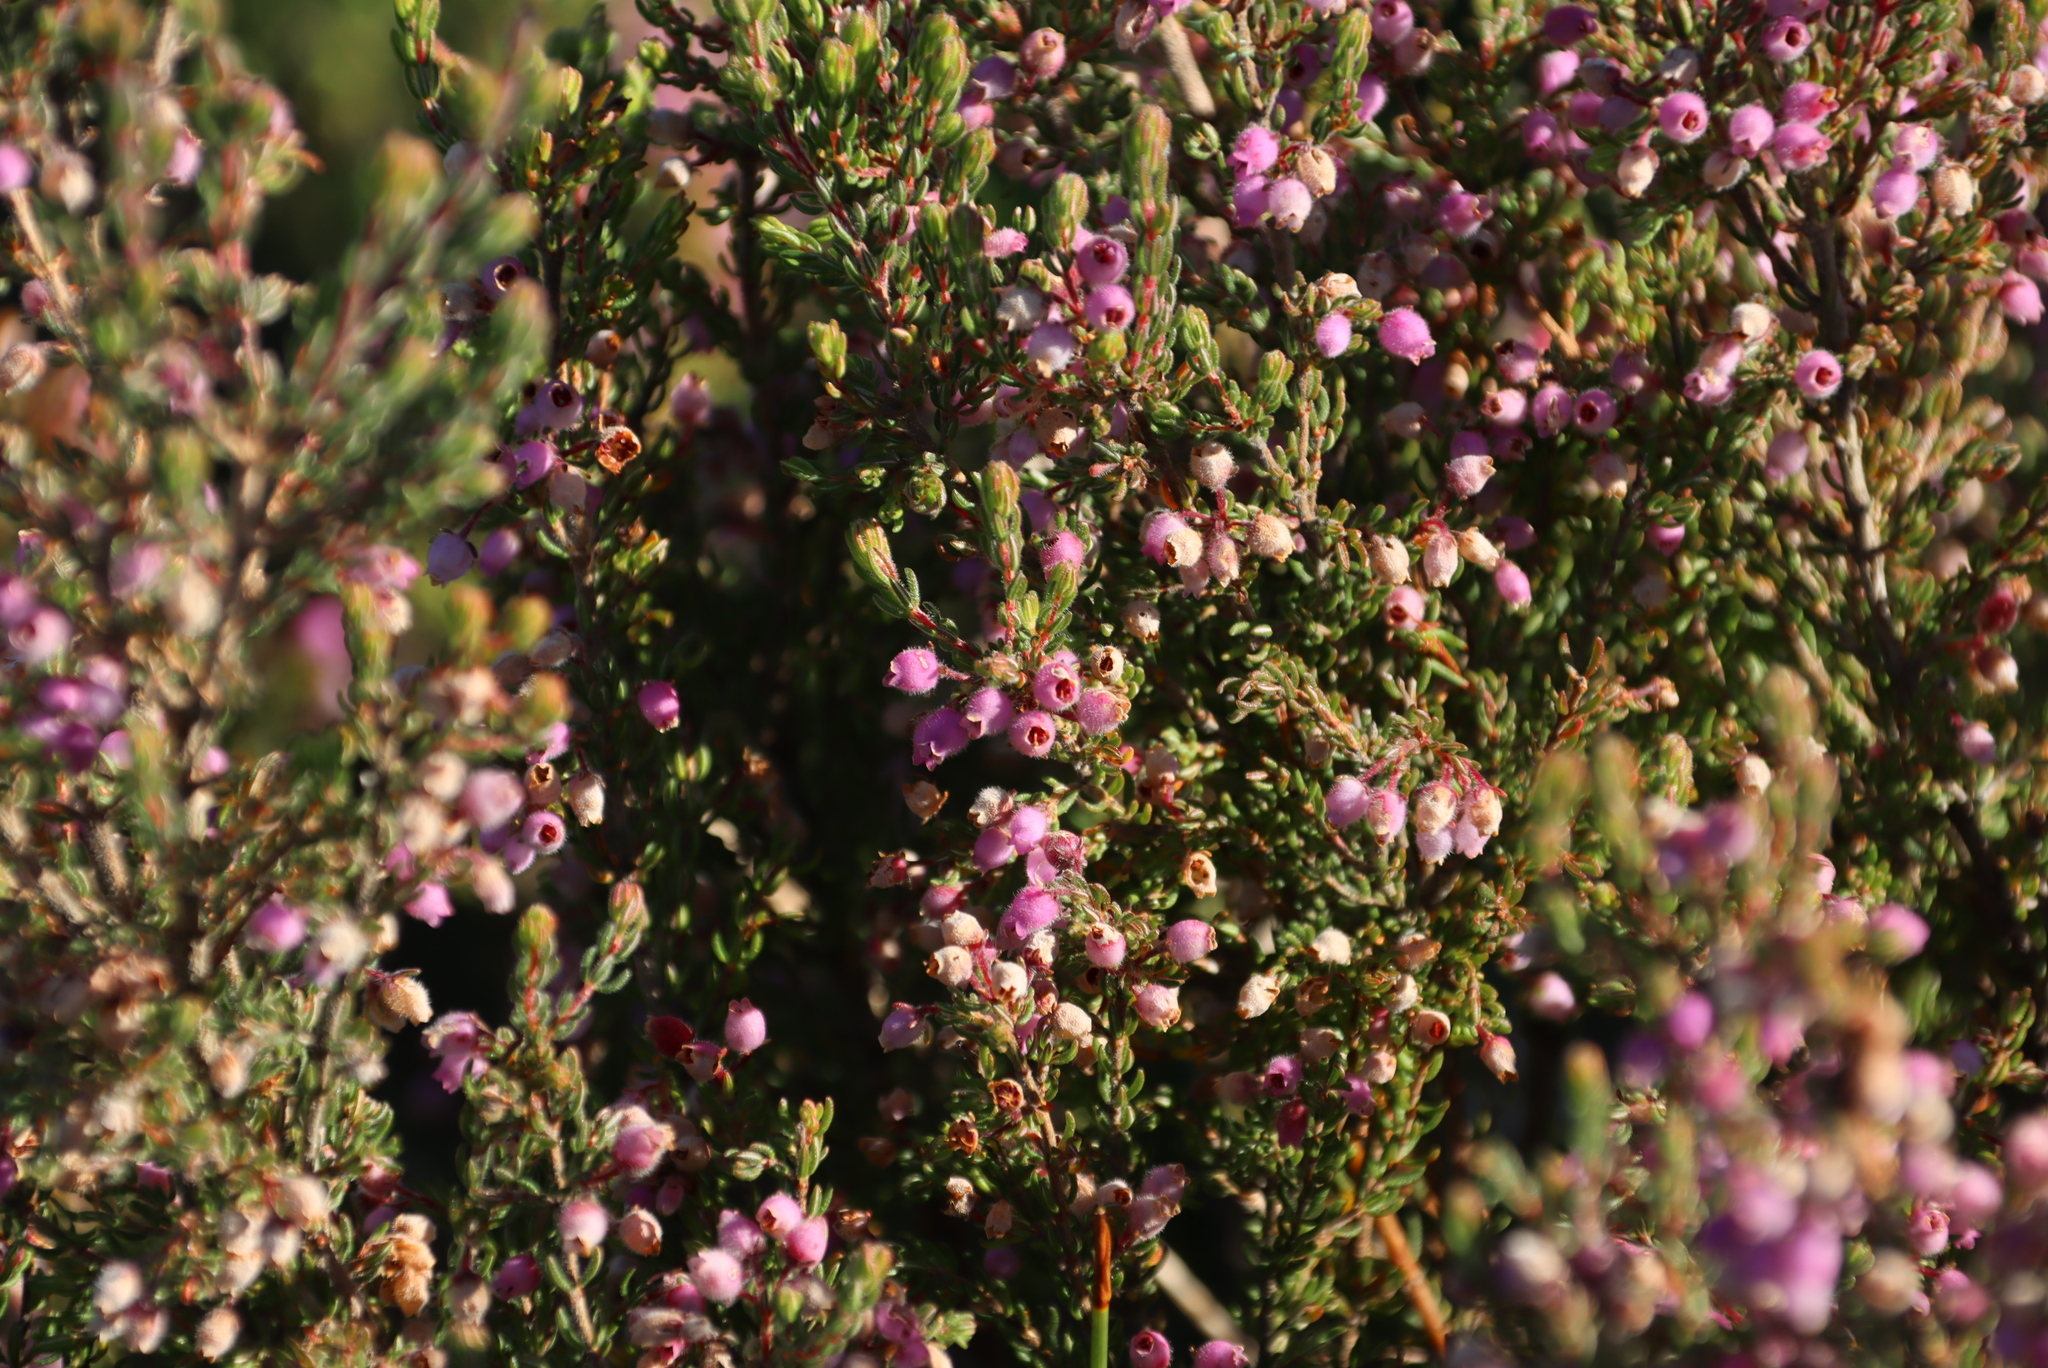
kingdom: Plantae
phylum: Tracheophyta
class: Magnoliopsida
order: Ericales
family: Ericaceae
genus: Erica
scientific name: Erica hirtiflora
